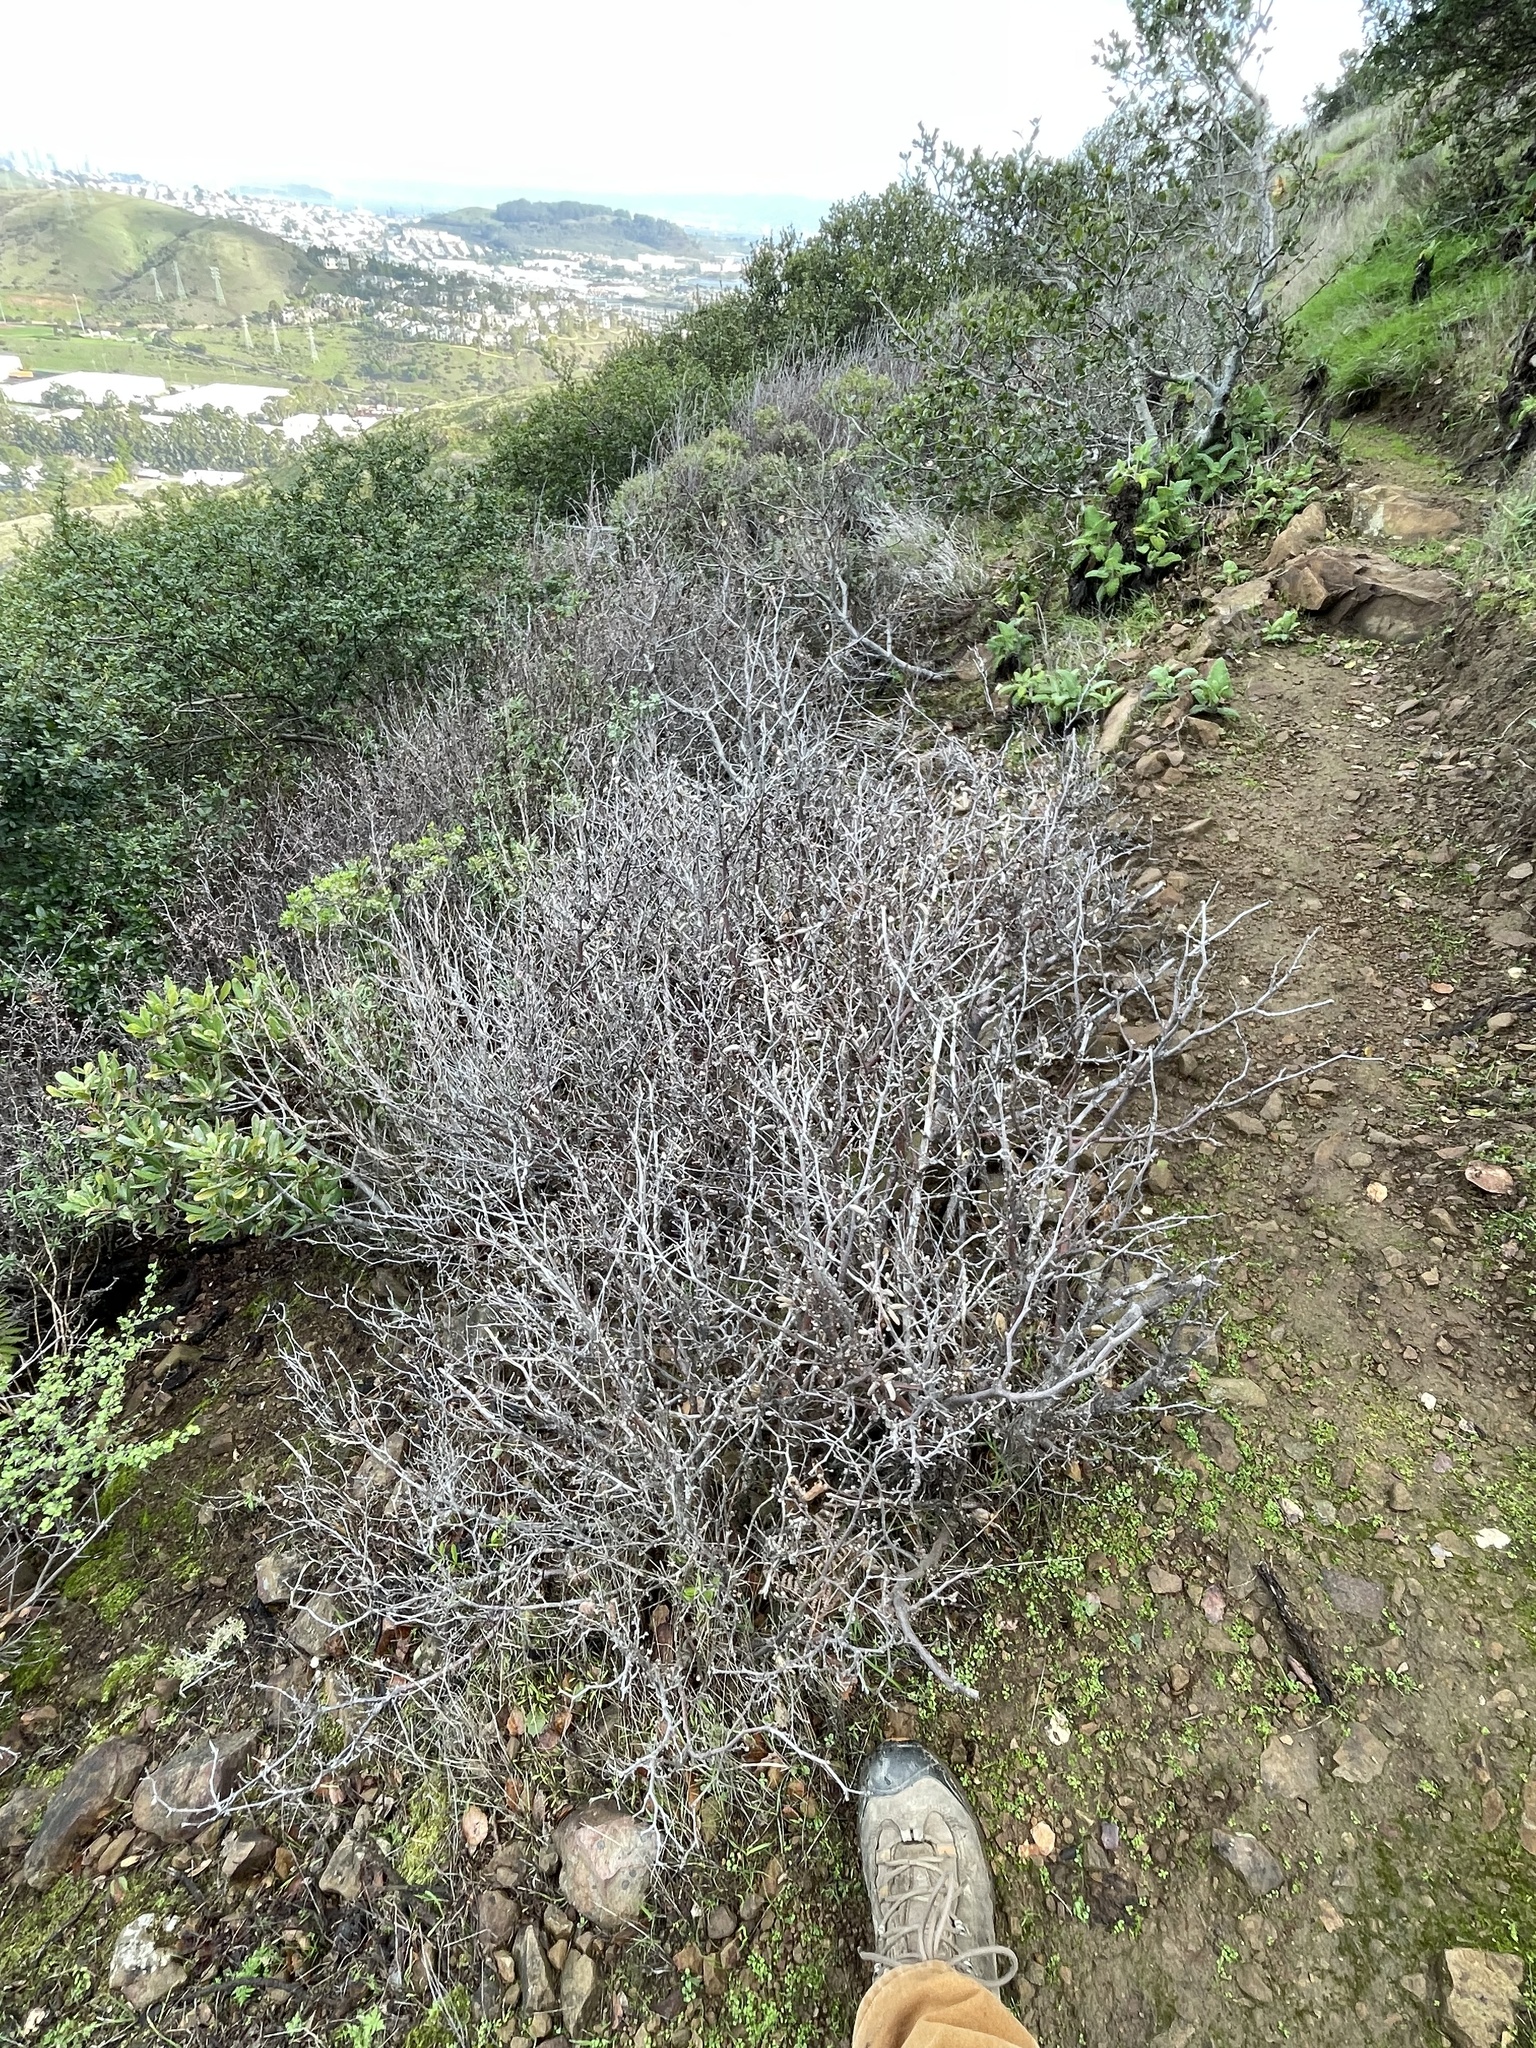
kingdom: Plantae
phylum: Tracheophyta
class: Magnoliopsida
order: Fagales
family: Betulaceae
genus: Corylus
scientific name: Corylus cornuta
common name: Beaked hazel
